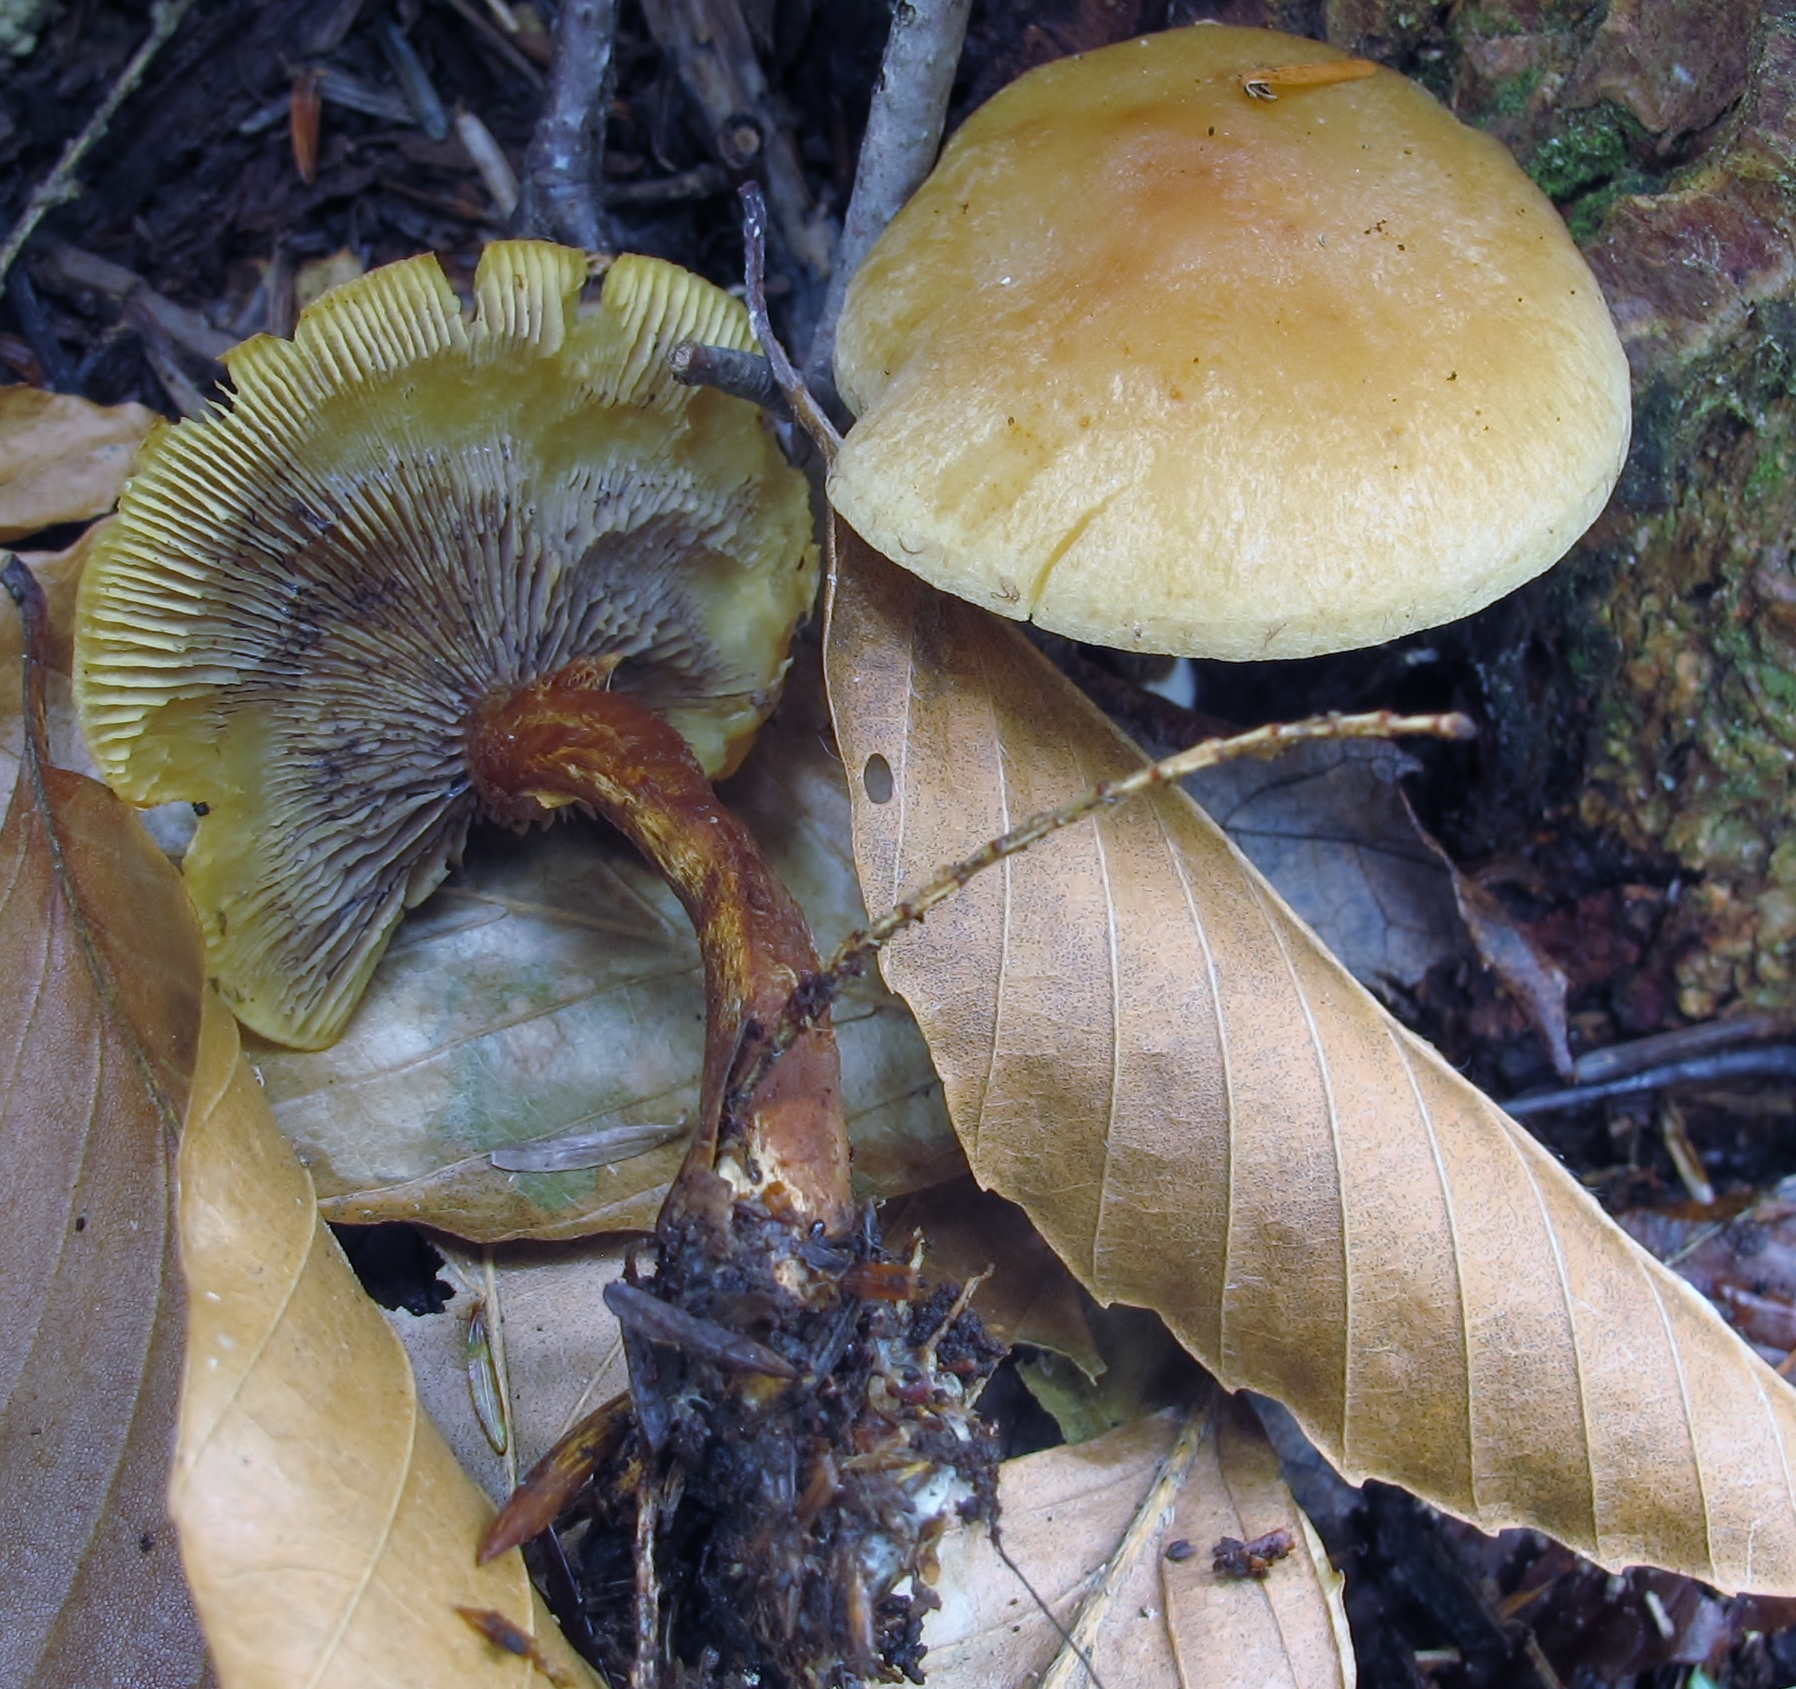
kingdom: Fungi
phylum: Basidiomycota
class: Agaricomycetes
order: Agaricales
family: Strophariaceae
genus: Hypholoma
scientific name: Hypholoma capnoides
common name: Conifer tuft
